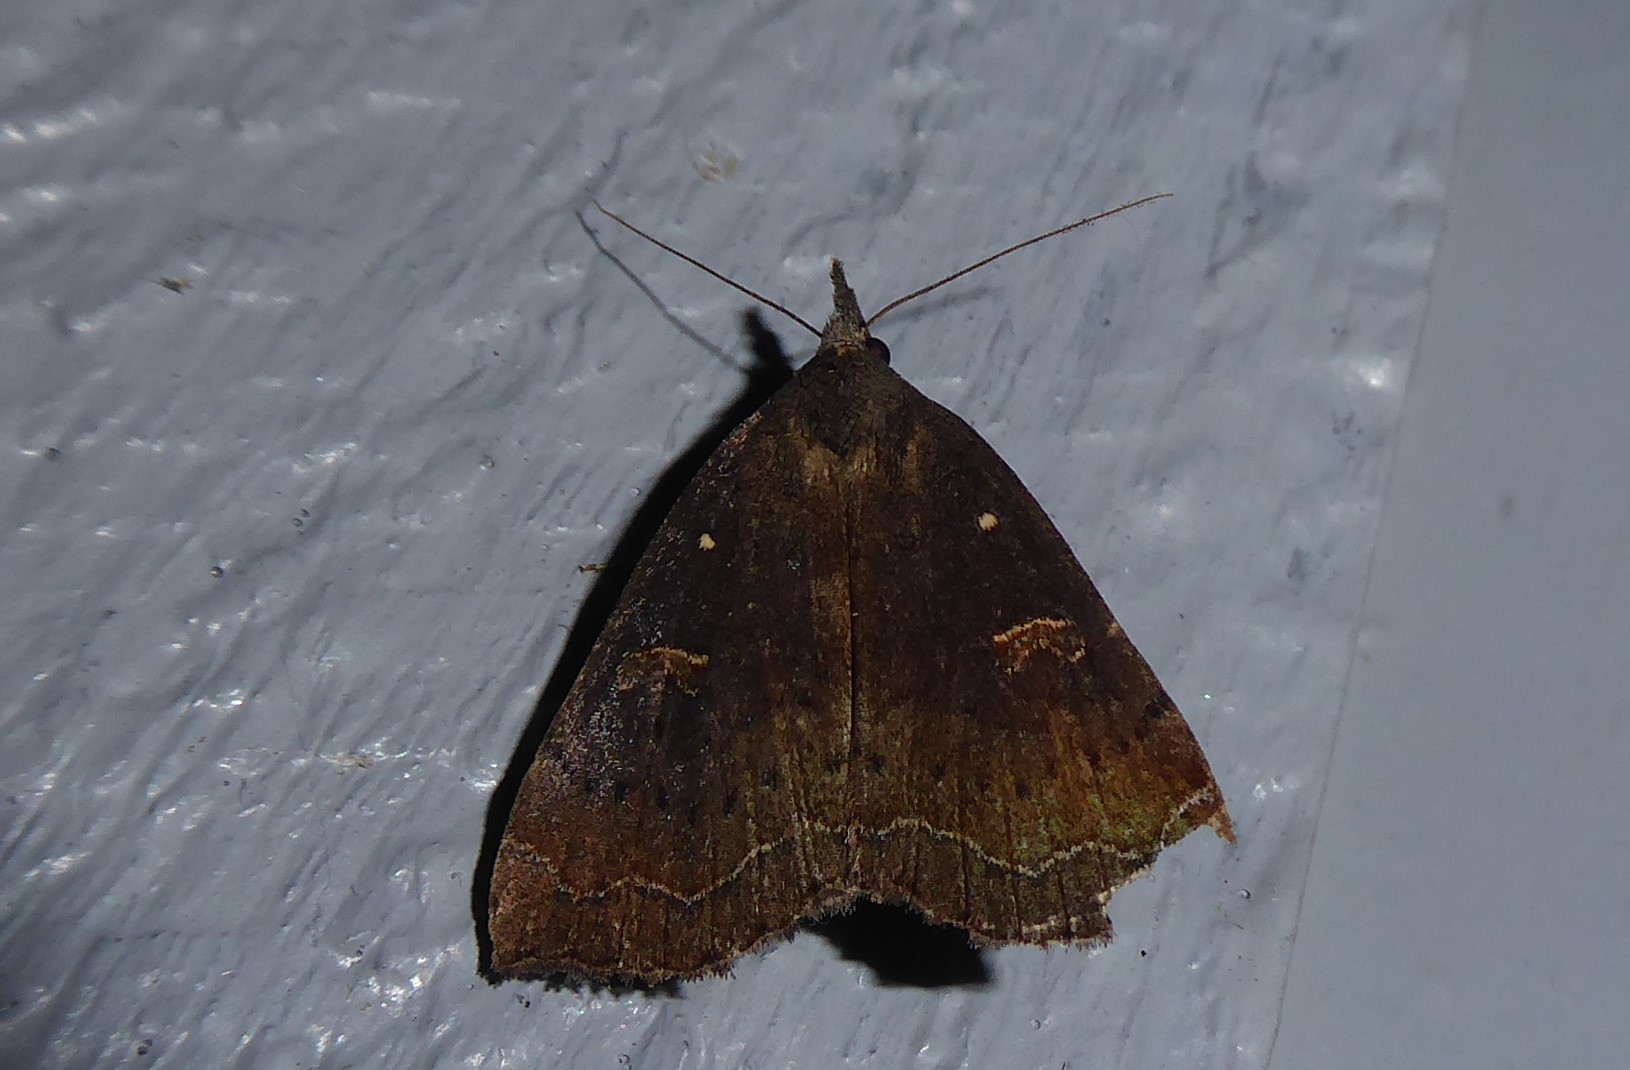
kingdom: Animalia
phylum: Arthropoda
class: Insecta
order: Lepidoptera
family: Erebidae
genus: Rhapsa
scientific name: Rhapsa scotosialis
